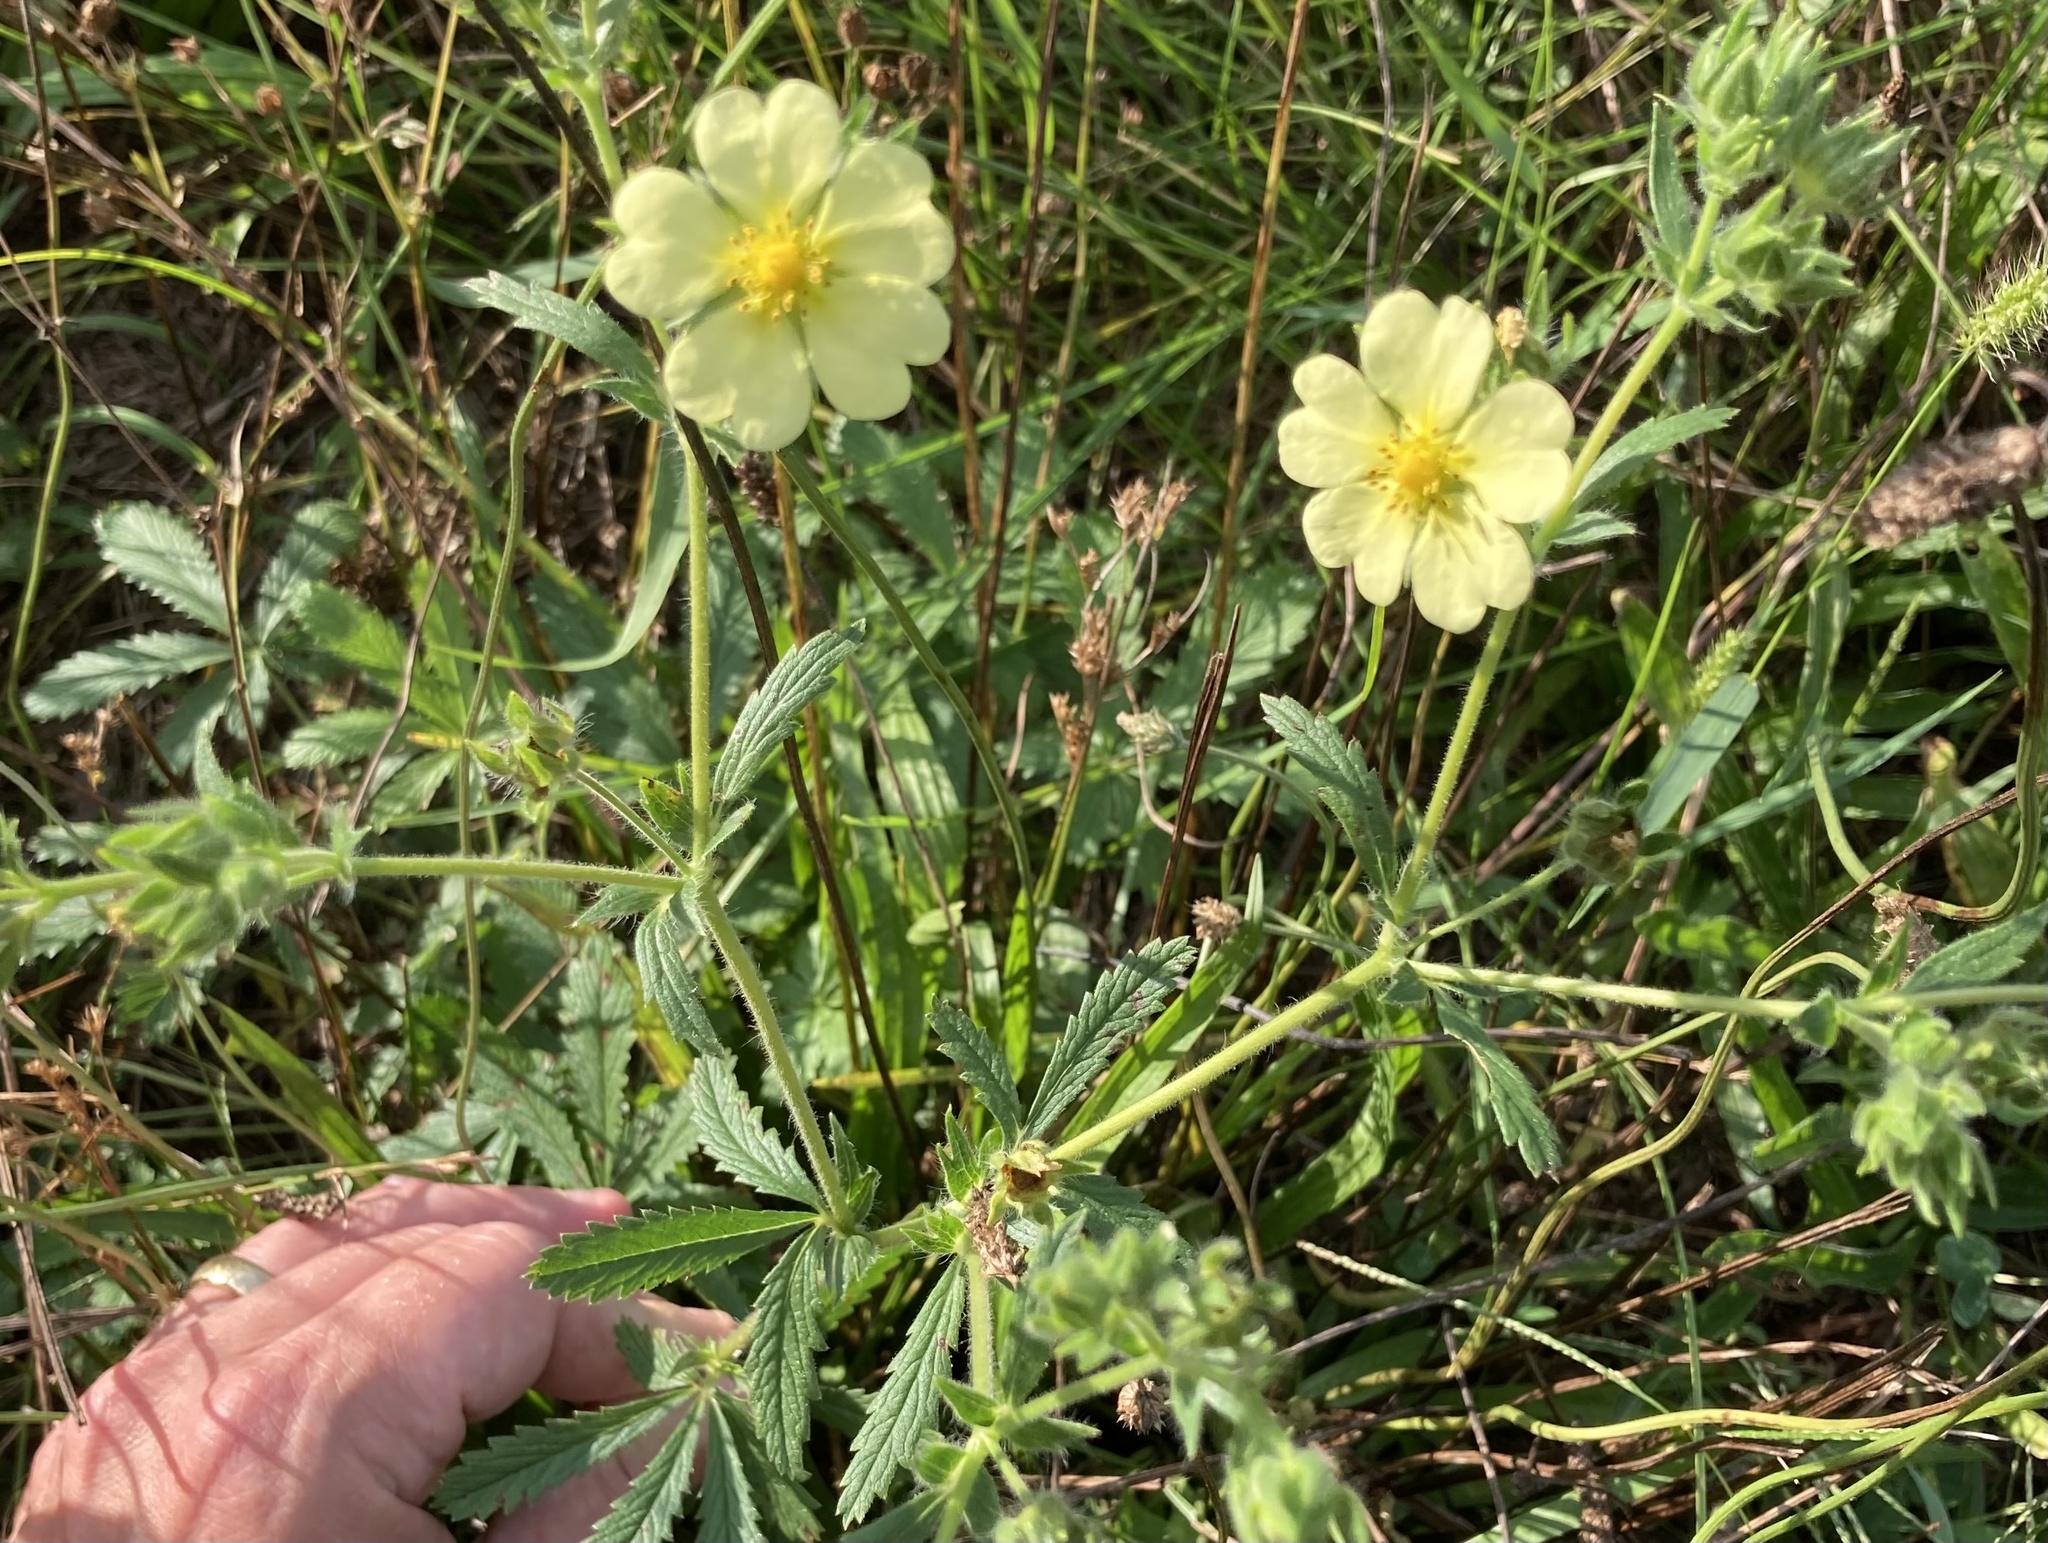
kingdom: Plantae
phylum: Tracheophyta
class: Magnoliopsida
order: Rosales
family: Rosaceae
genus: Potentilla
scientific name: Potentilla recta
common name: Sulphur cinquefoil
